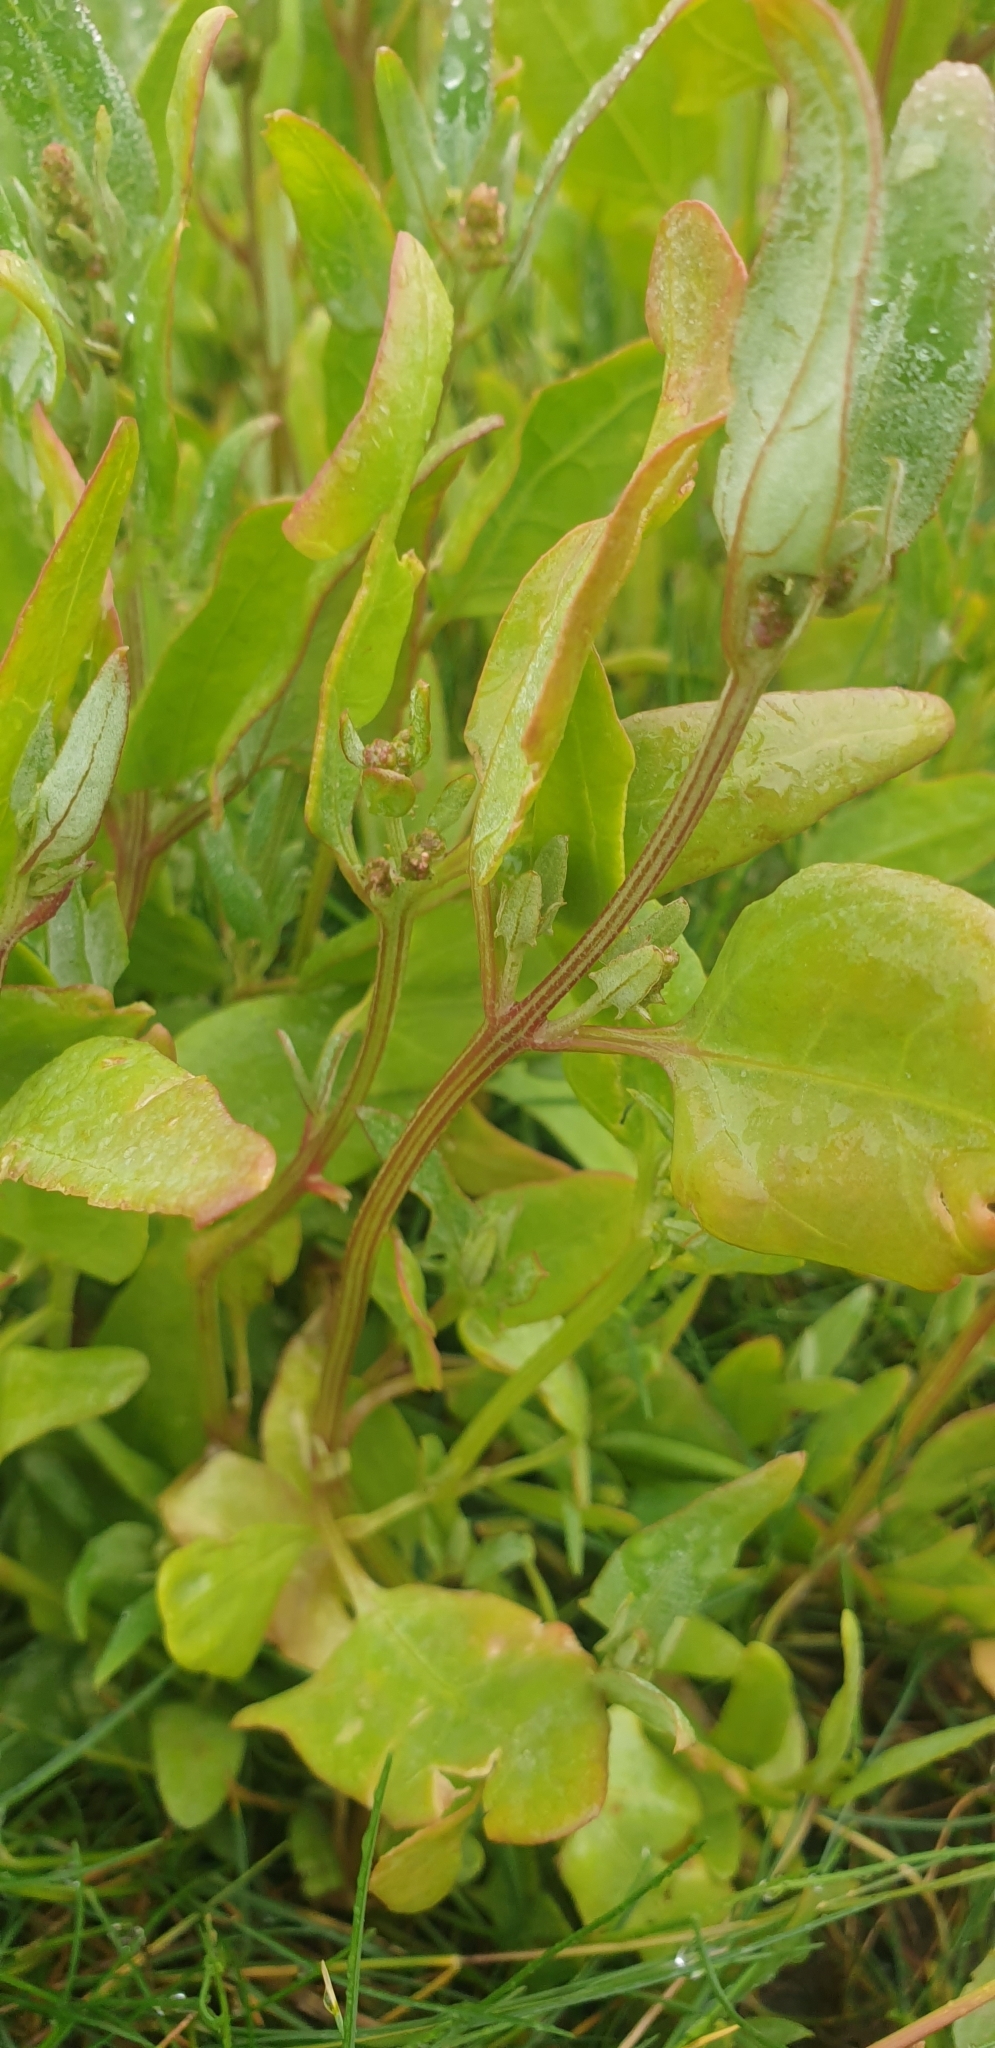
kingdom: Plantae
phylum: Tracheophyta
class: Magnoliopsida
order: Caryophyllales
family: Amaranthaceae
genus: Atriplex
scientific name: Atriplex prostrata
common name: Spear-leaved orache
